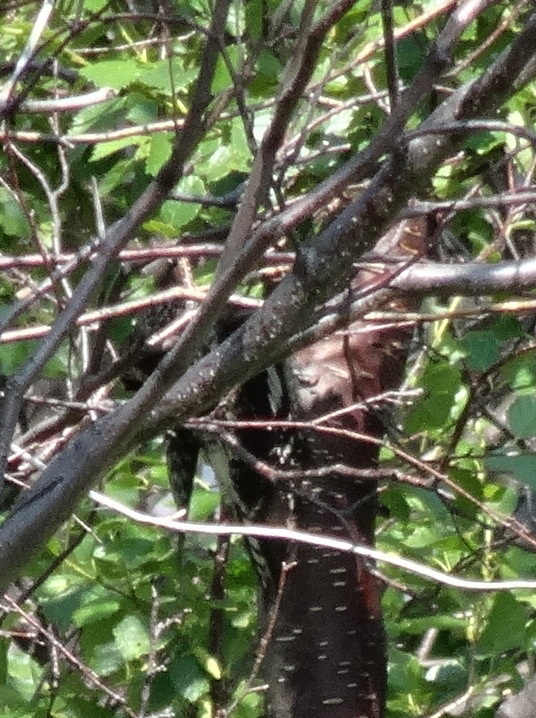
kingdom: Animalia
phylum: Chordata
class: Aves
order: Piciformes
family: Picidae
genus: Sphyrapicus
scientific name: Sphyrapicus nuchalis
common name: Red-naped sapsucker
